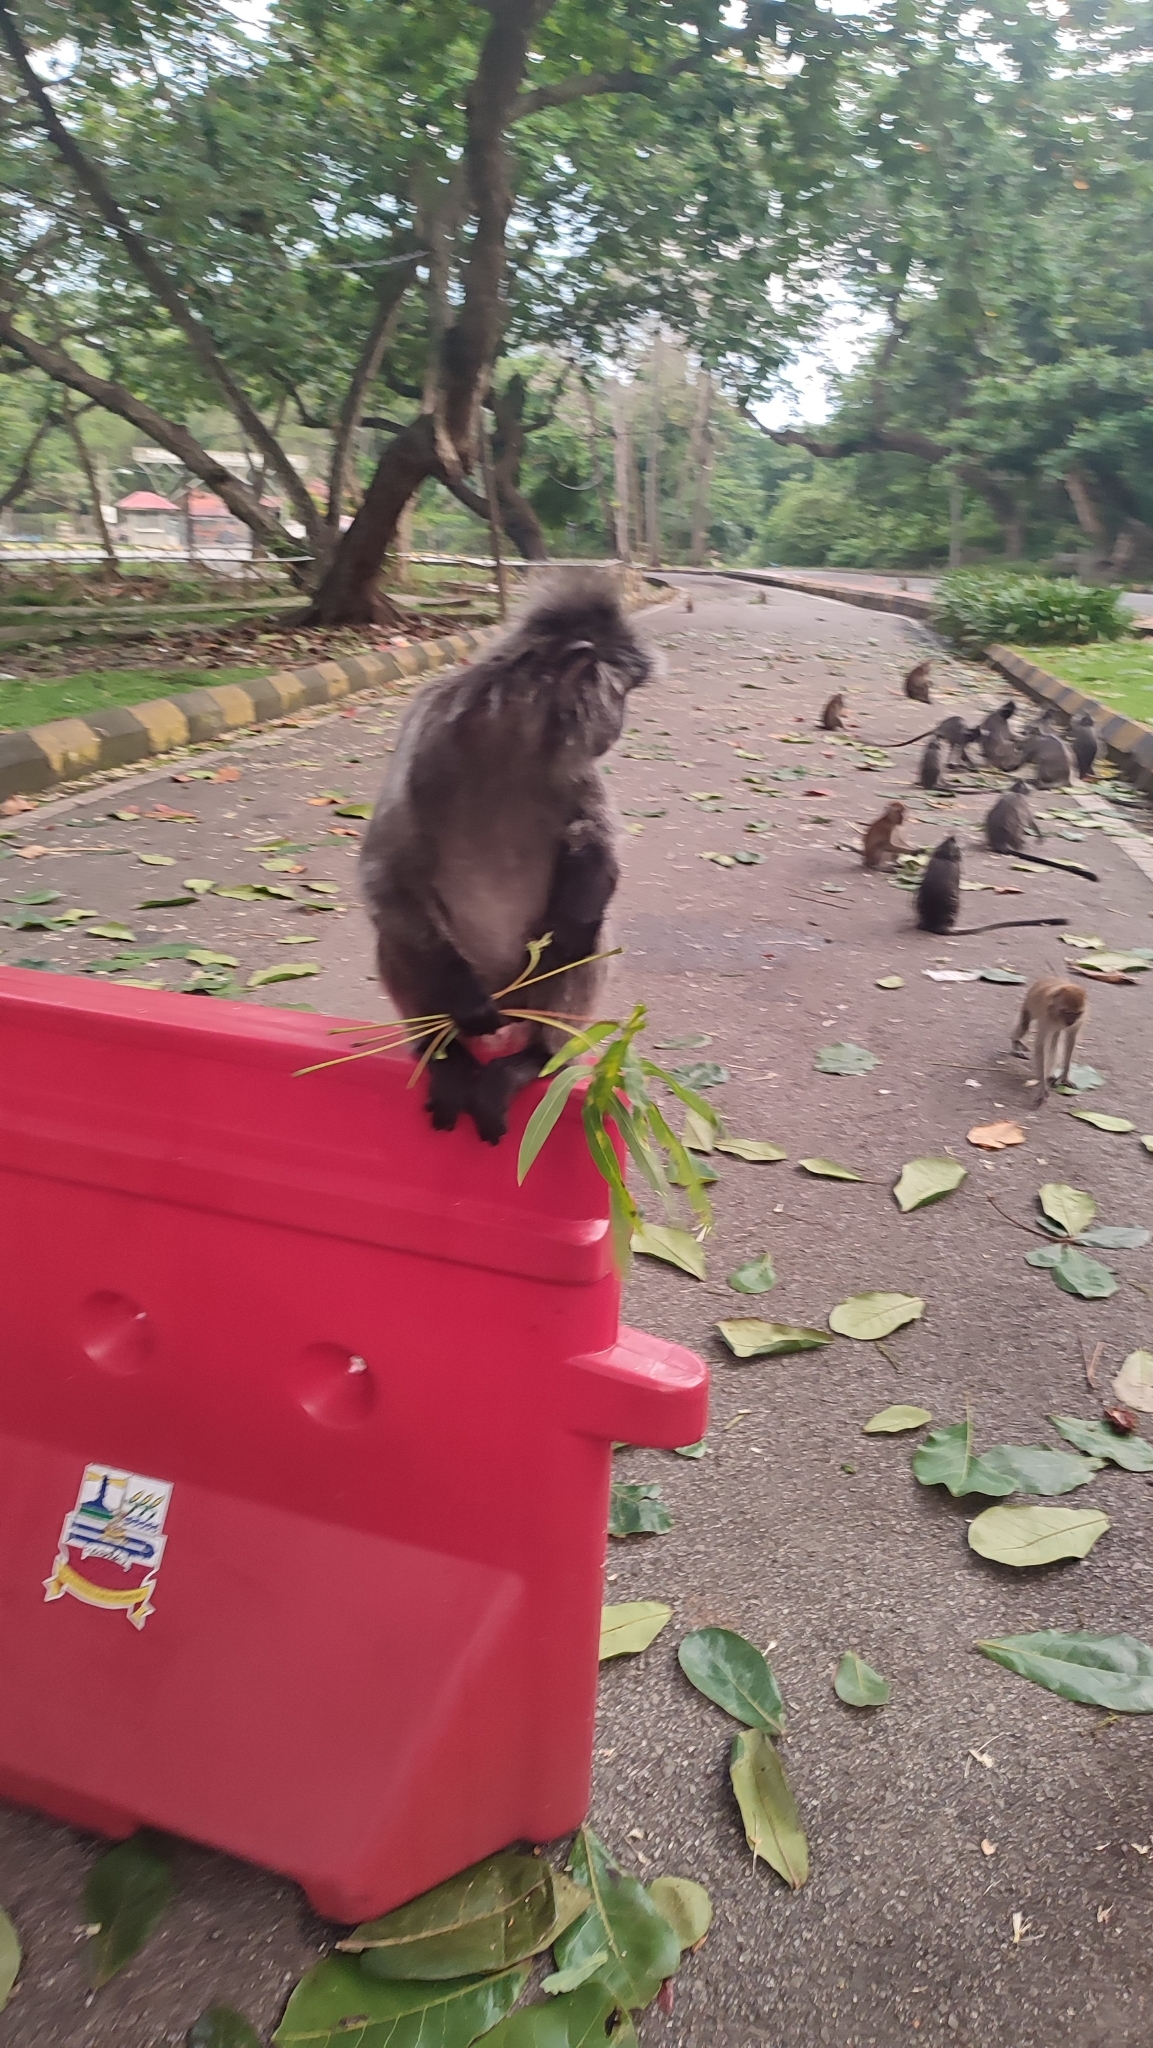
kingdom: Animalia
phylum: Chordata
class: Mammalia
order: Primates
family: Cercopithecidae
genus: Trachypithecus
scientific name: Trachypithecus selangorensis
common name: Selangor silvery langur
